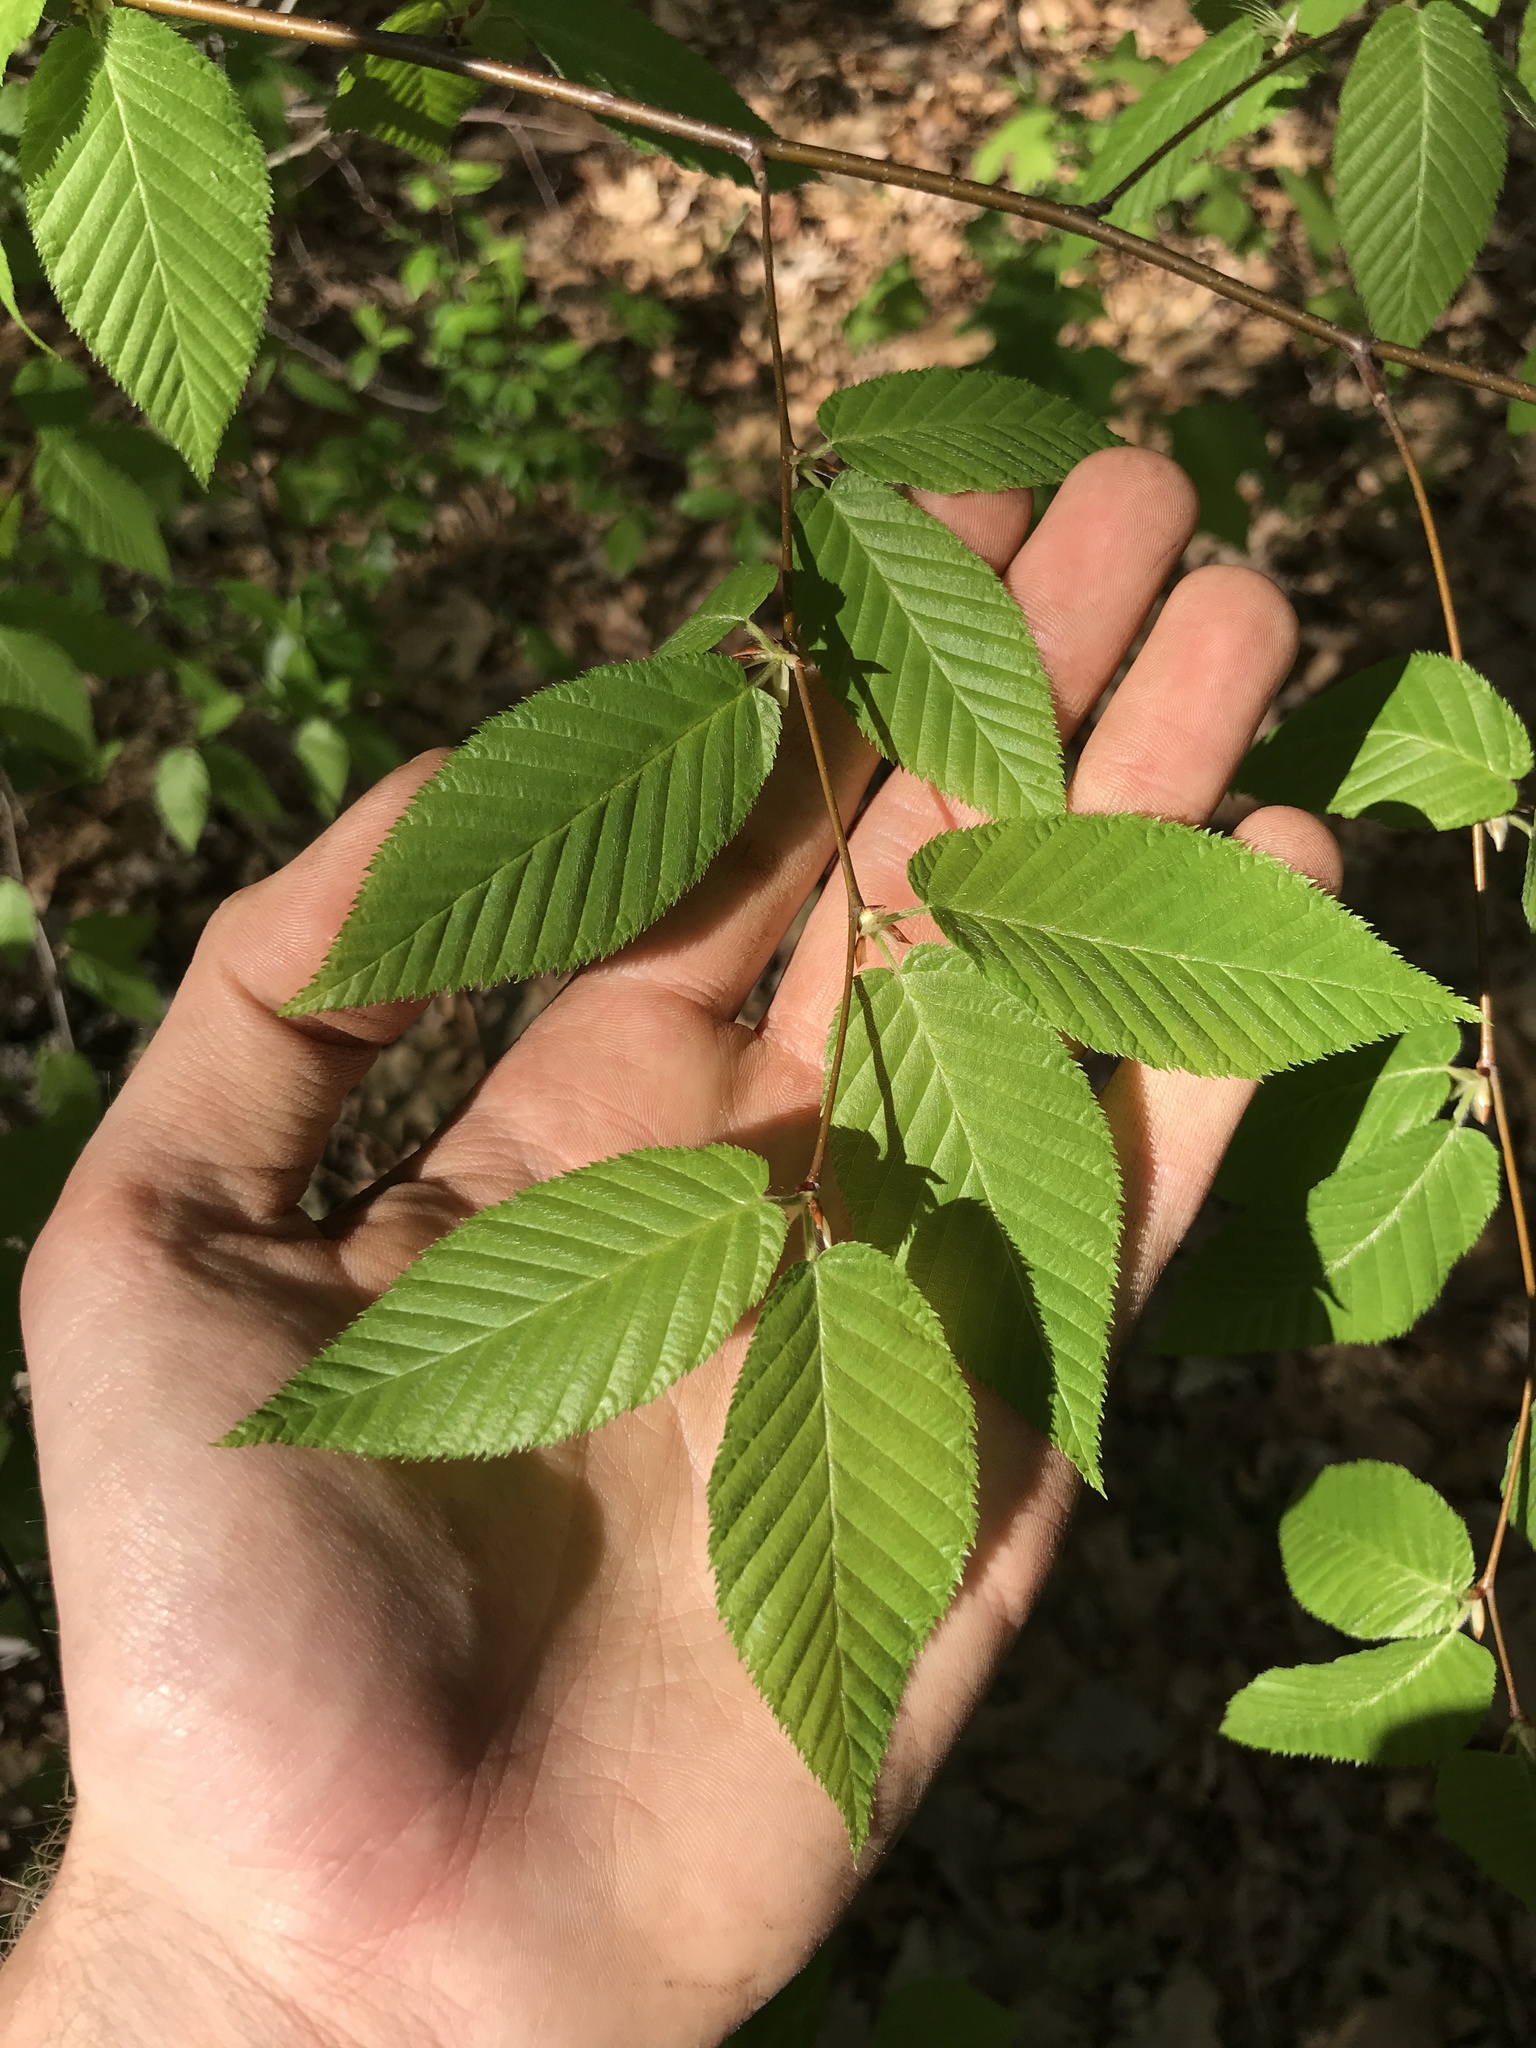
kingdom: Plantae
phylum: Tracheophyta
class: Magnoliopsida
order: Fagales
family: Betulaceae
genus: Betula
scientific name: Betula lenta
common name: Black birch
